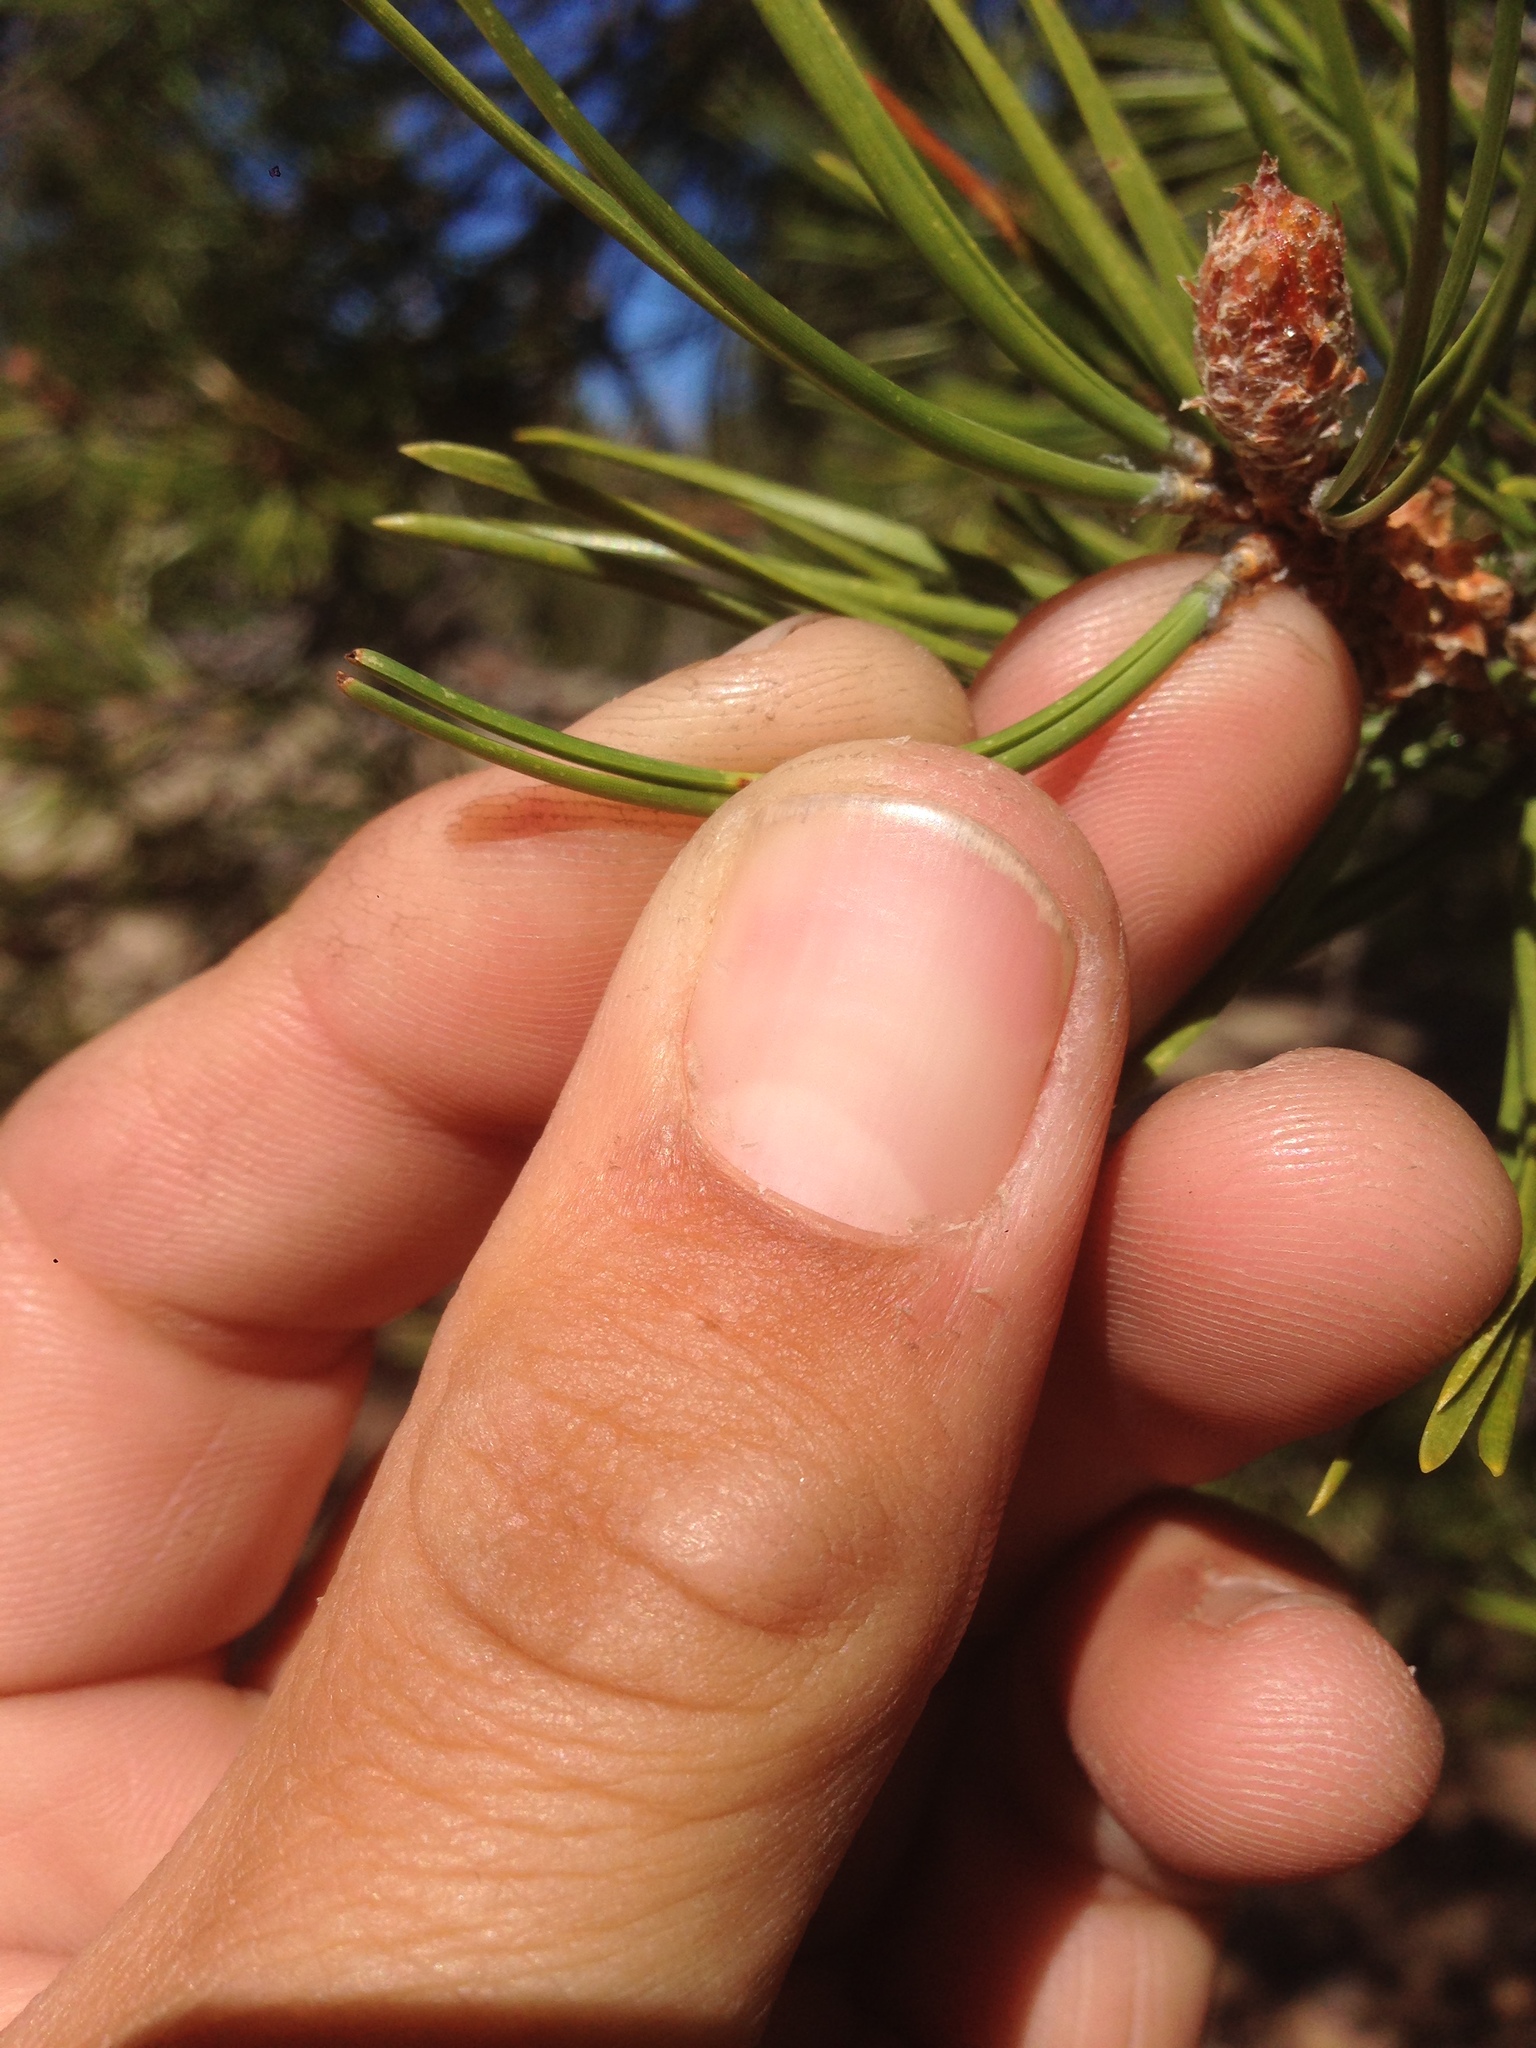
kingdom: Plantae
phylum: Tracheophyta
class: Pinopsida
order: Pinales
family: Pinaceae
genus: Pinus
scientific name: Pinus contorta
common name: Lodgepole pine
